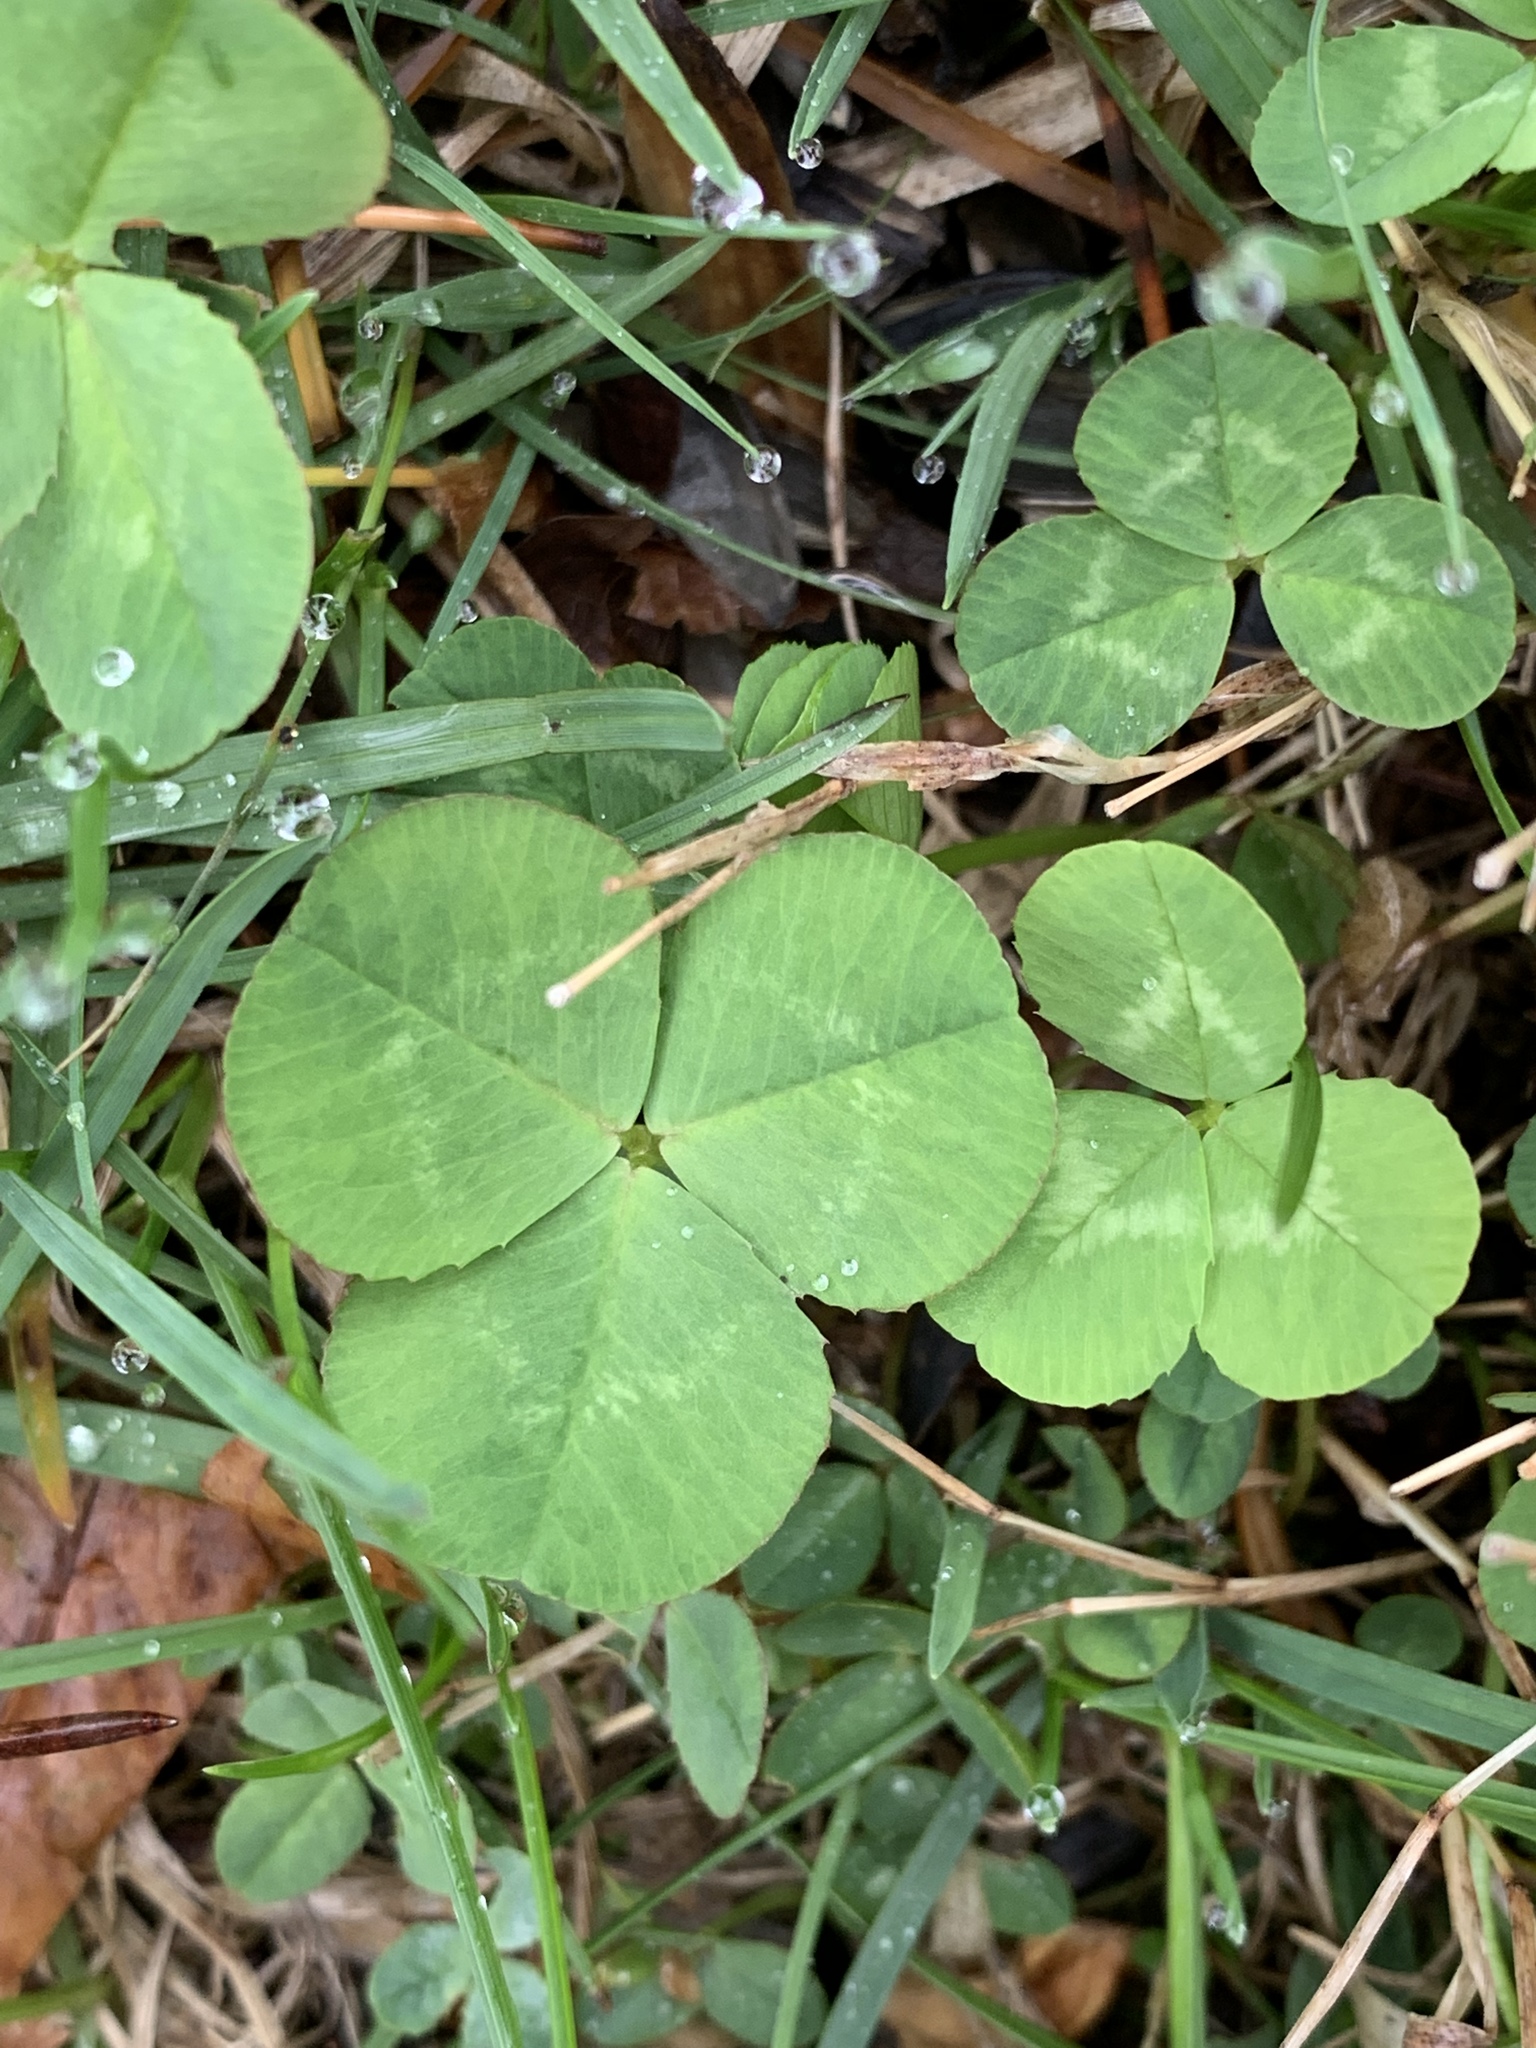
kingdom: Plantae
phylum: Tracheophyta
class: Magnoliopsida
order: Fabales
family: Fabaceae
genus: Trifolium
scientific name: Trifolium repens
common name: White clover
